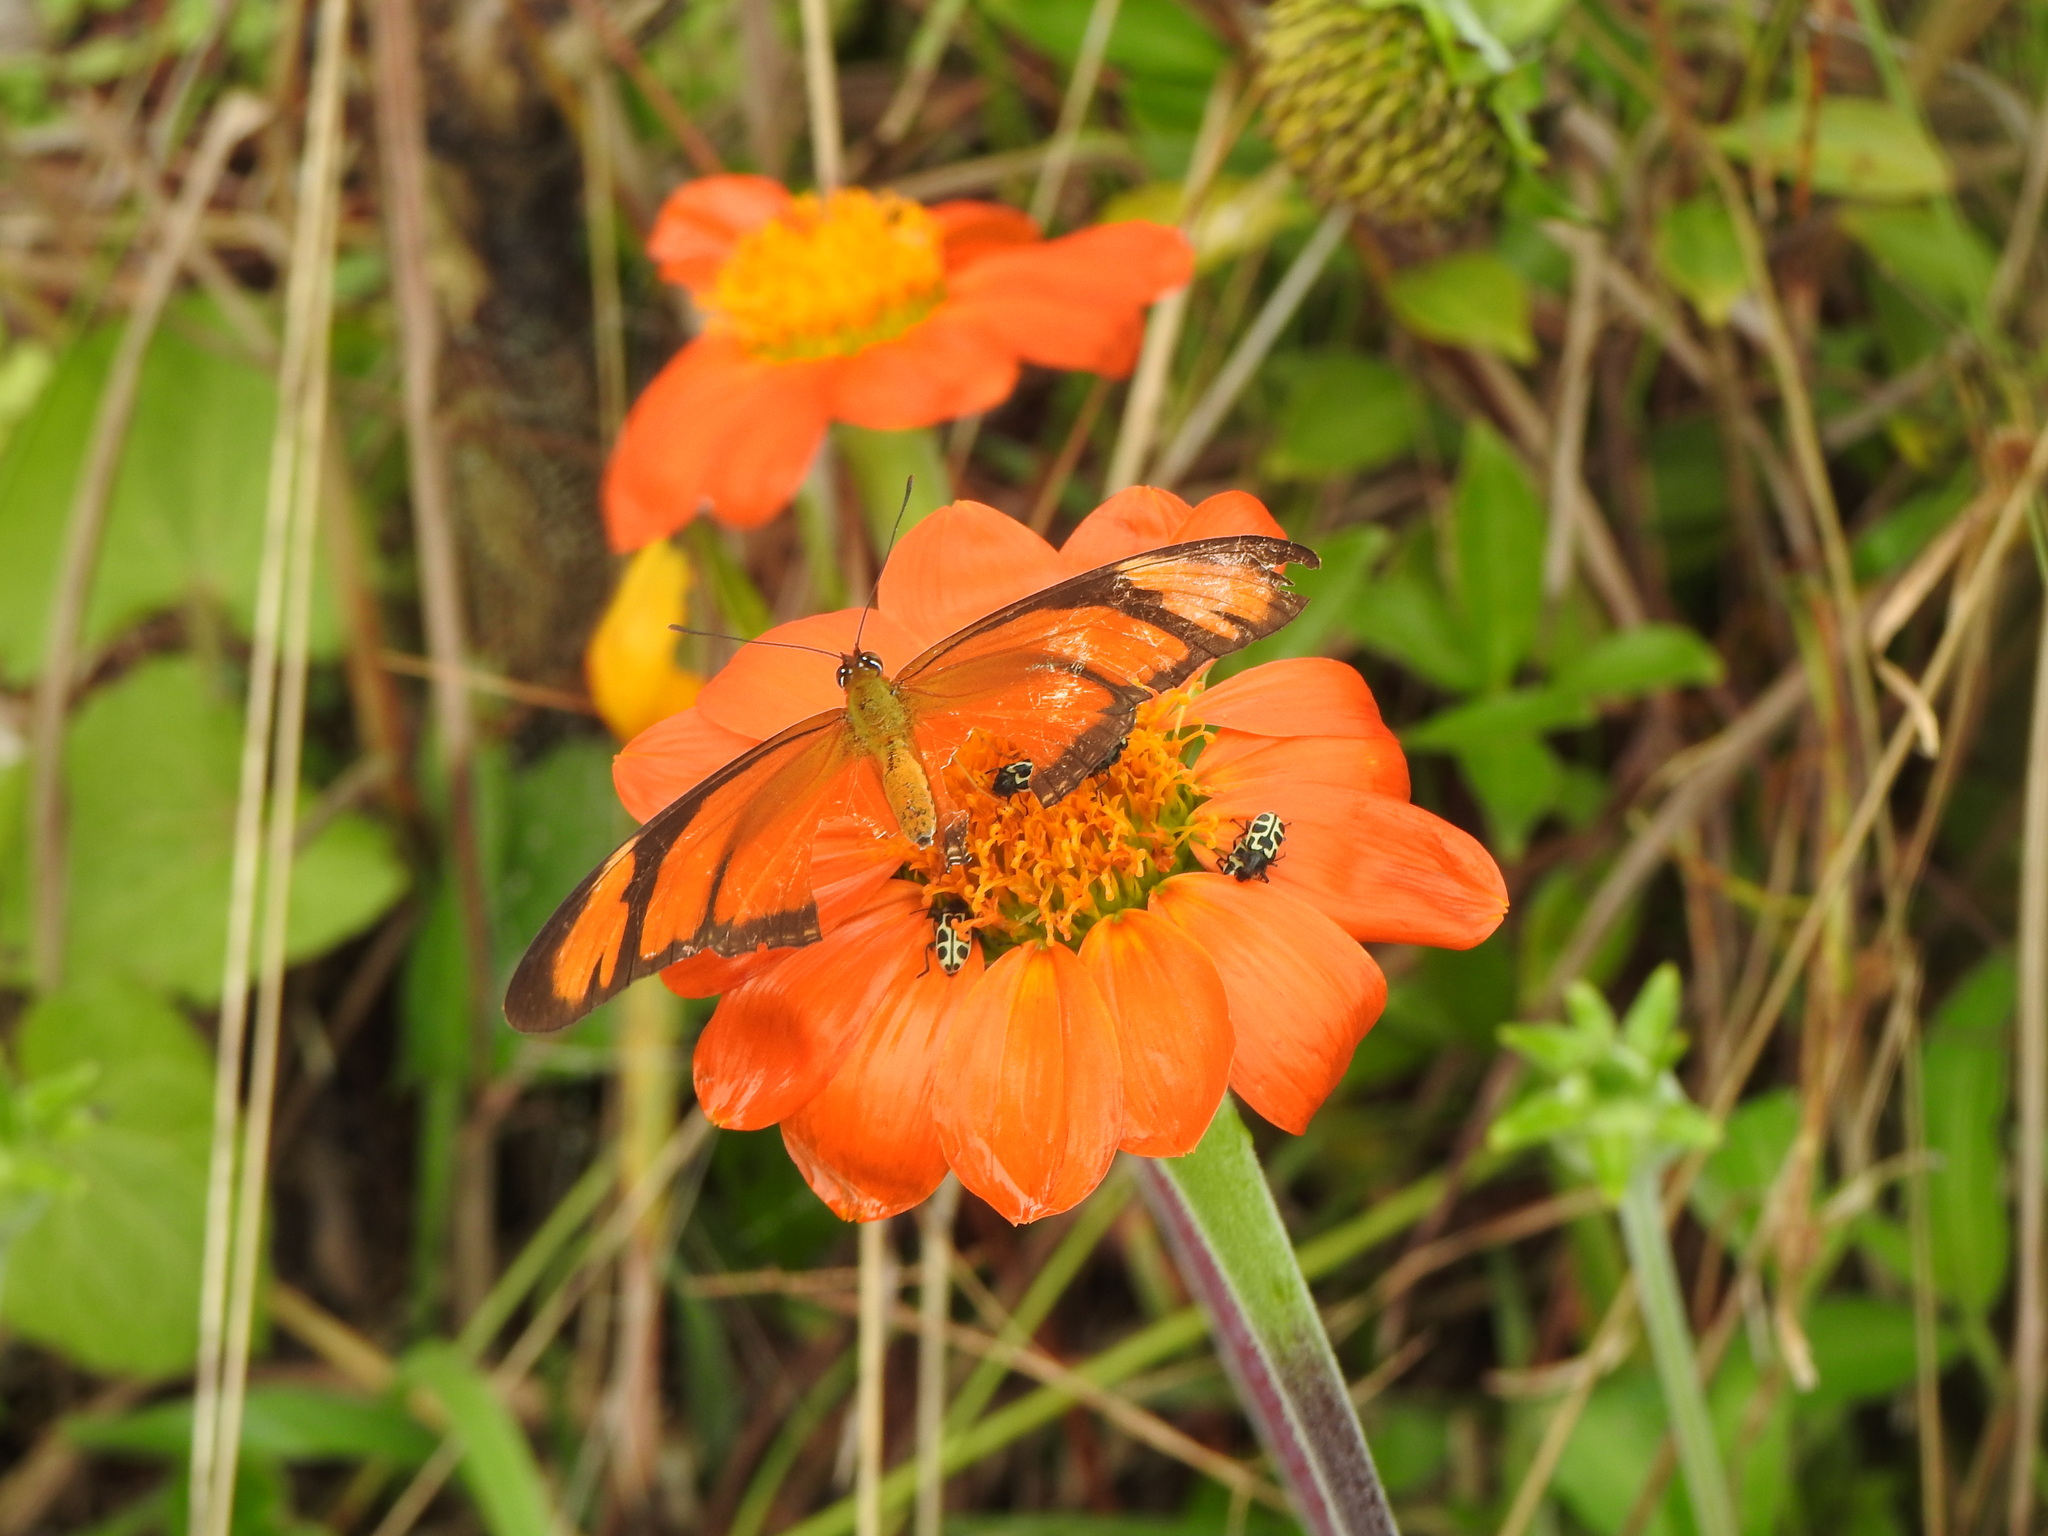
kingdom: Animalia
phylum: Arthropoda
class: Insecta
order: Lepidoptera
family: Nymphalidae
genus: Dryas
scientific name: Dryas iulia
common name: Flambeau
